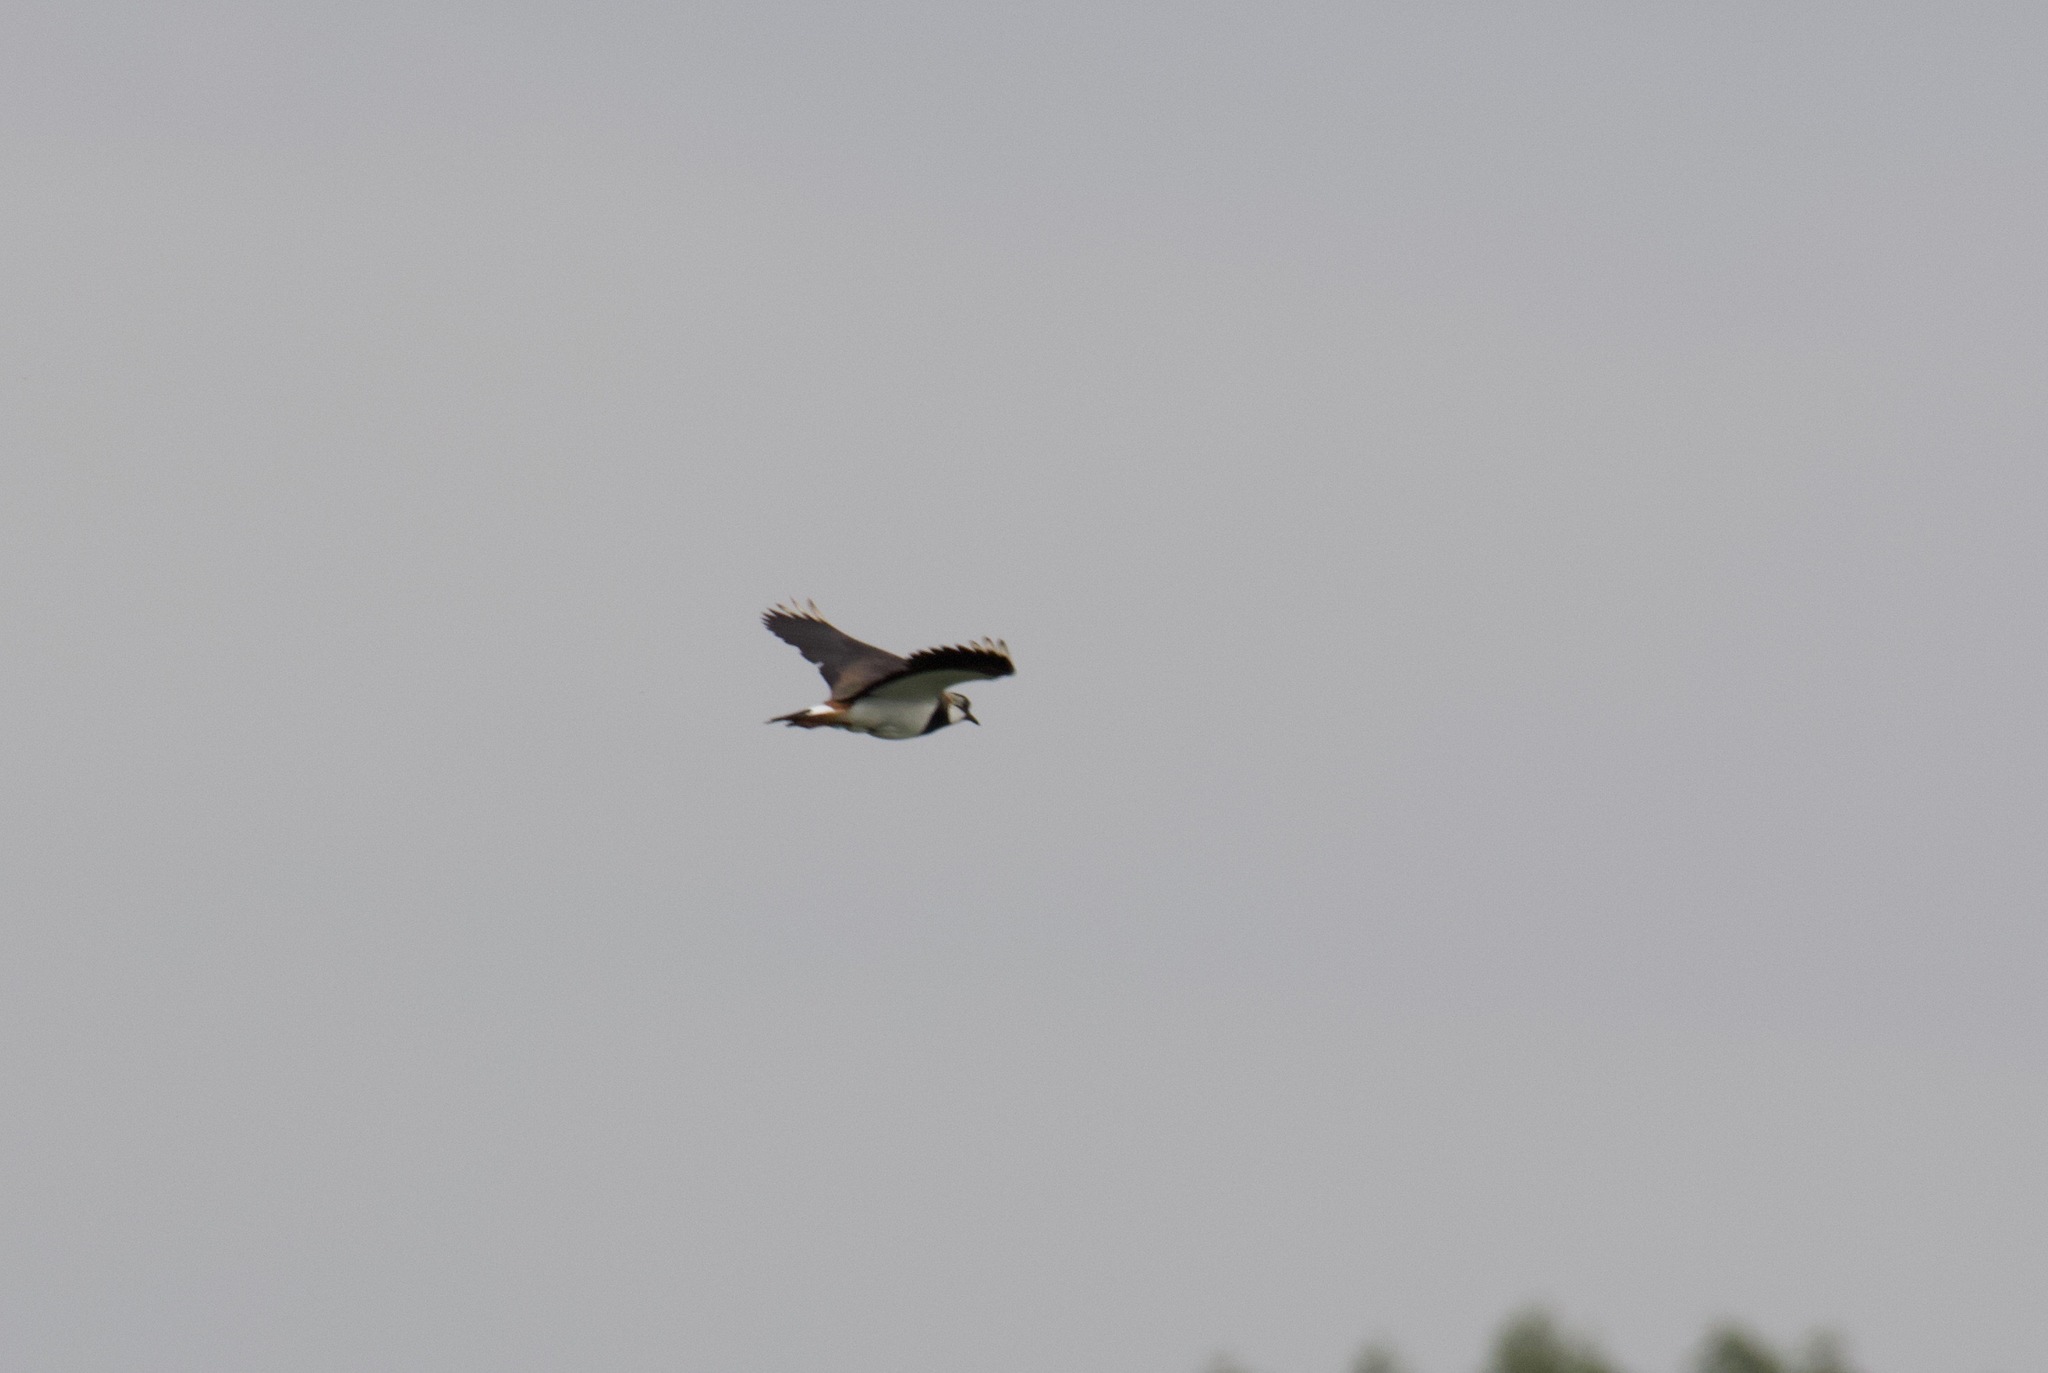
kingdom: Animalia
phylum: Chordata
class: Aves
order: Charadriiformes
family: Charadriidae
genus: Vanellus
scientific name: Vanellus vanellus
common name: Northern lapwing
